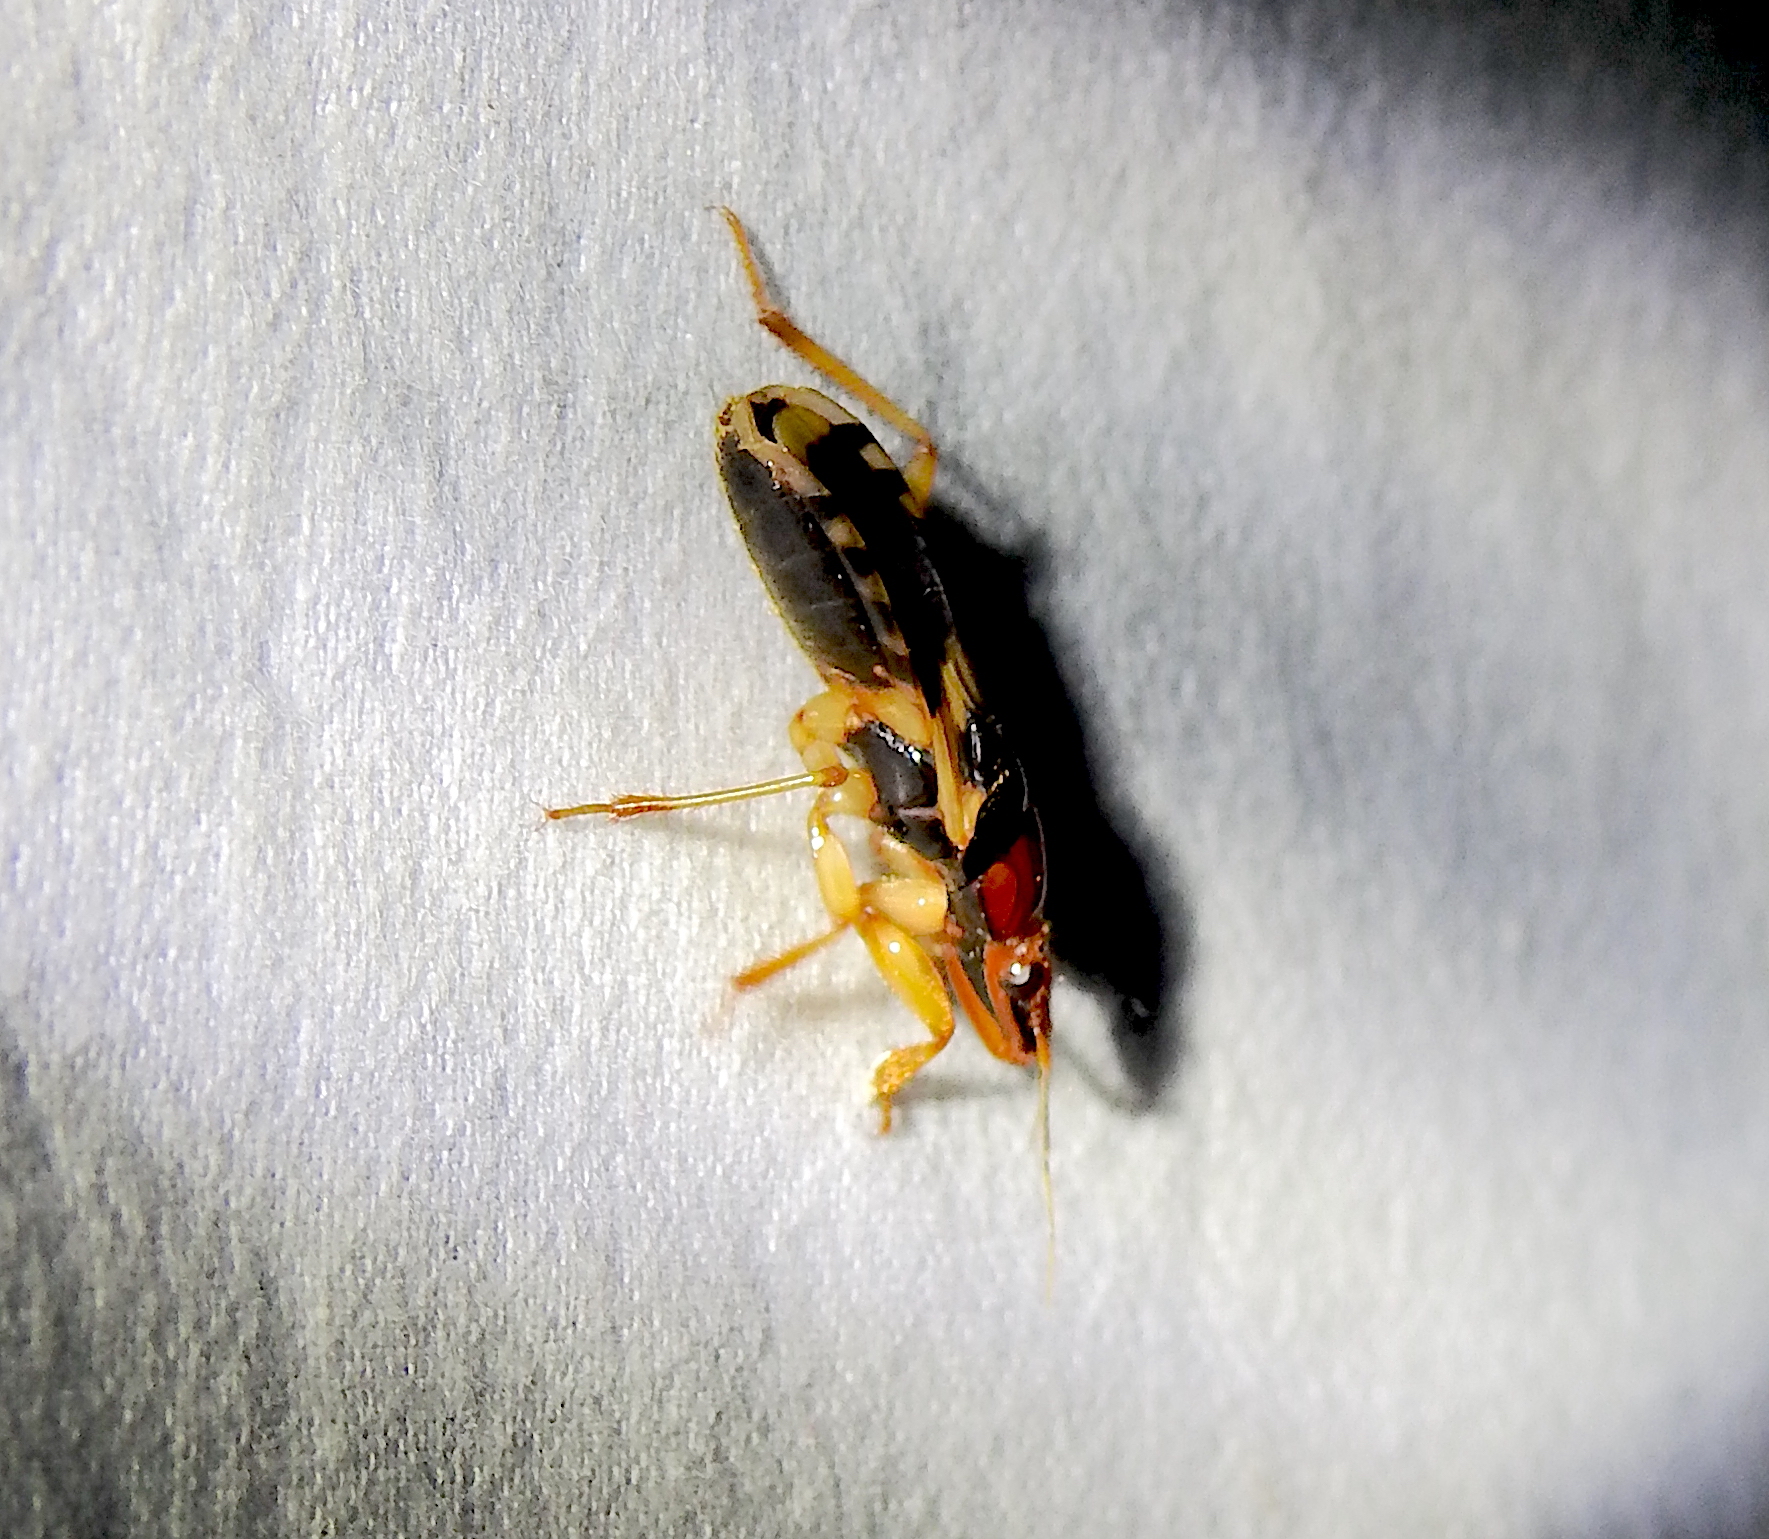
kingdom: Animalia
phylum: Arthropoda
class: Insecta
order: Hemiptera
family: Reduviidae
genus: Sirthenea
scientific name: Sirthenea flavipes
